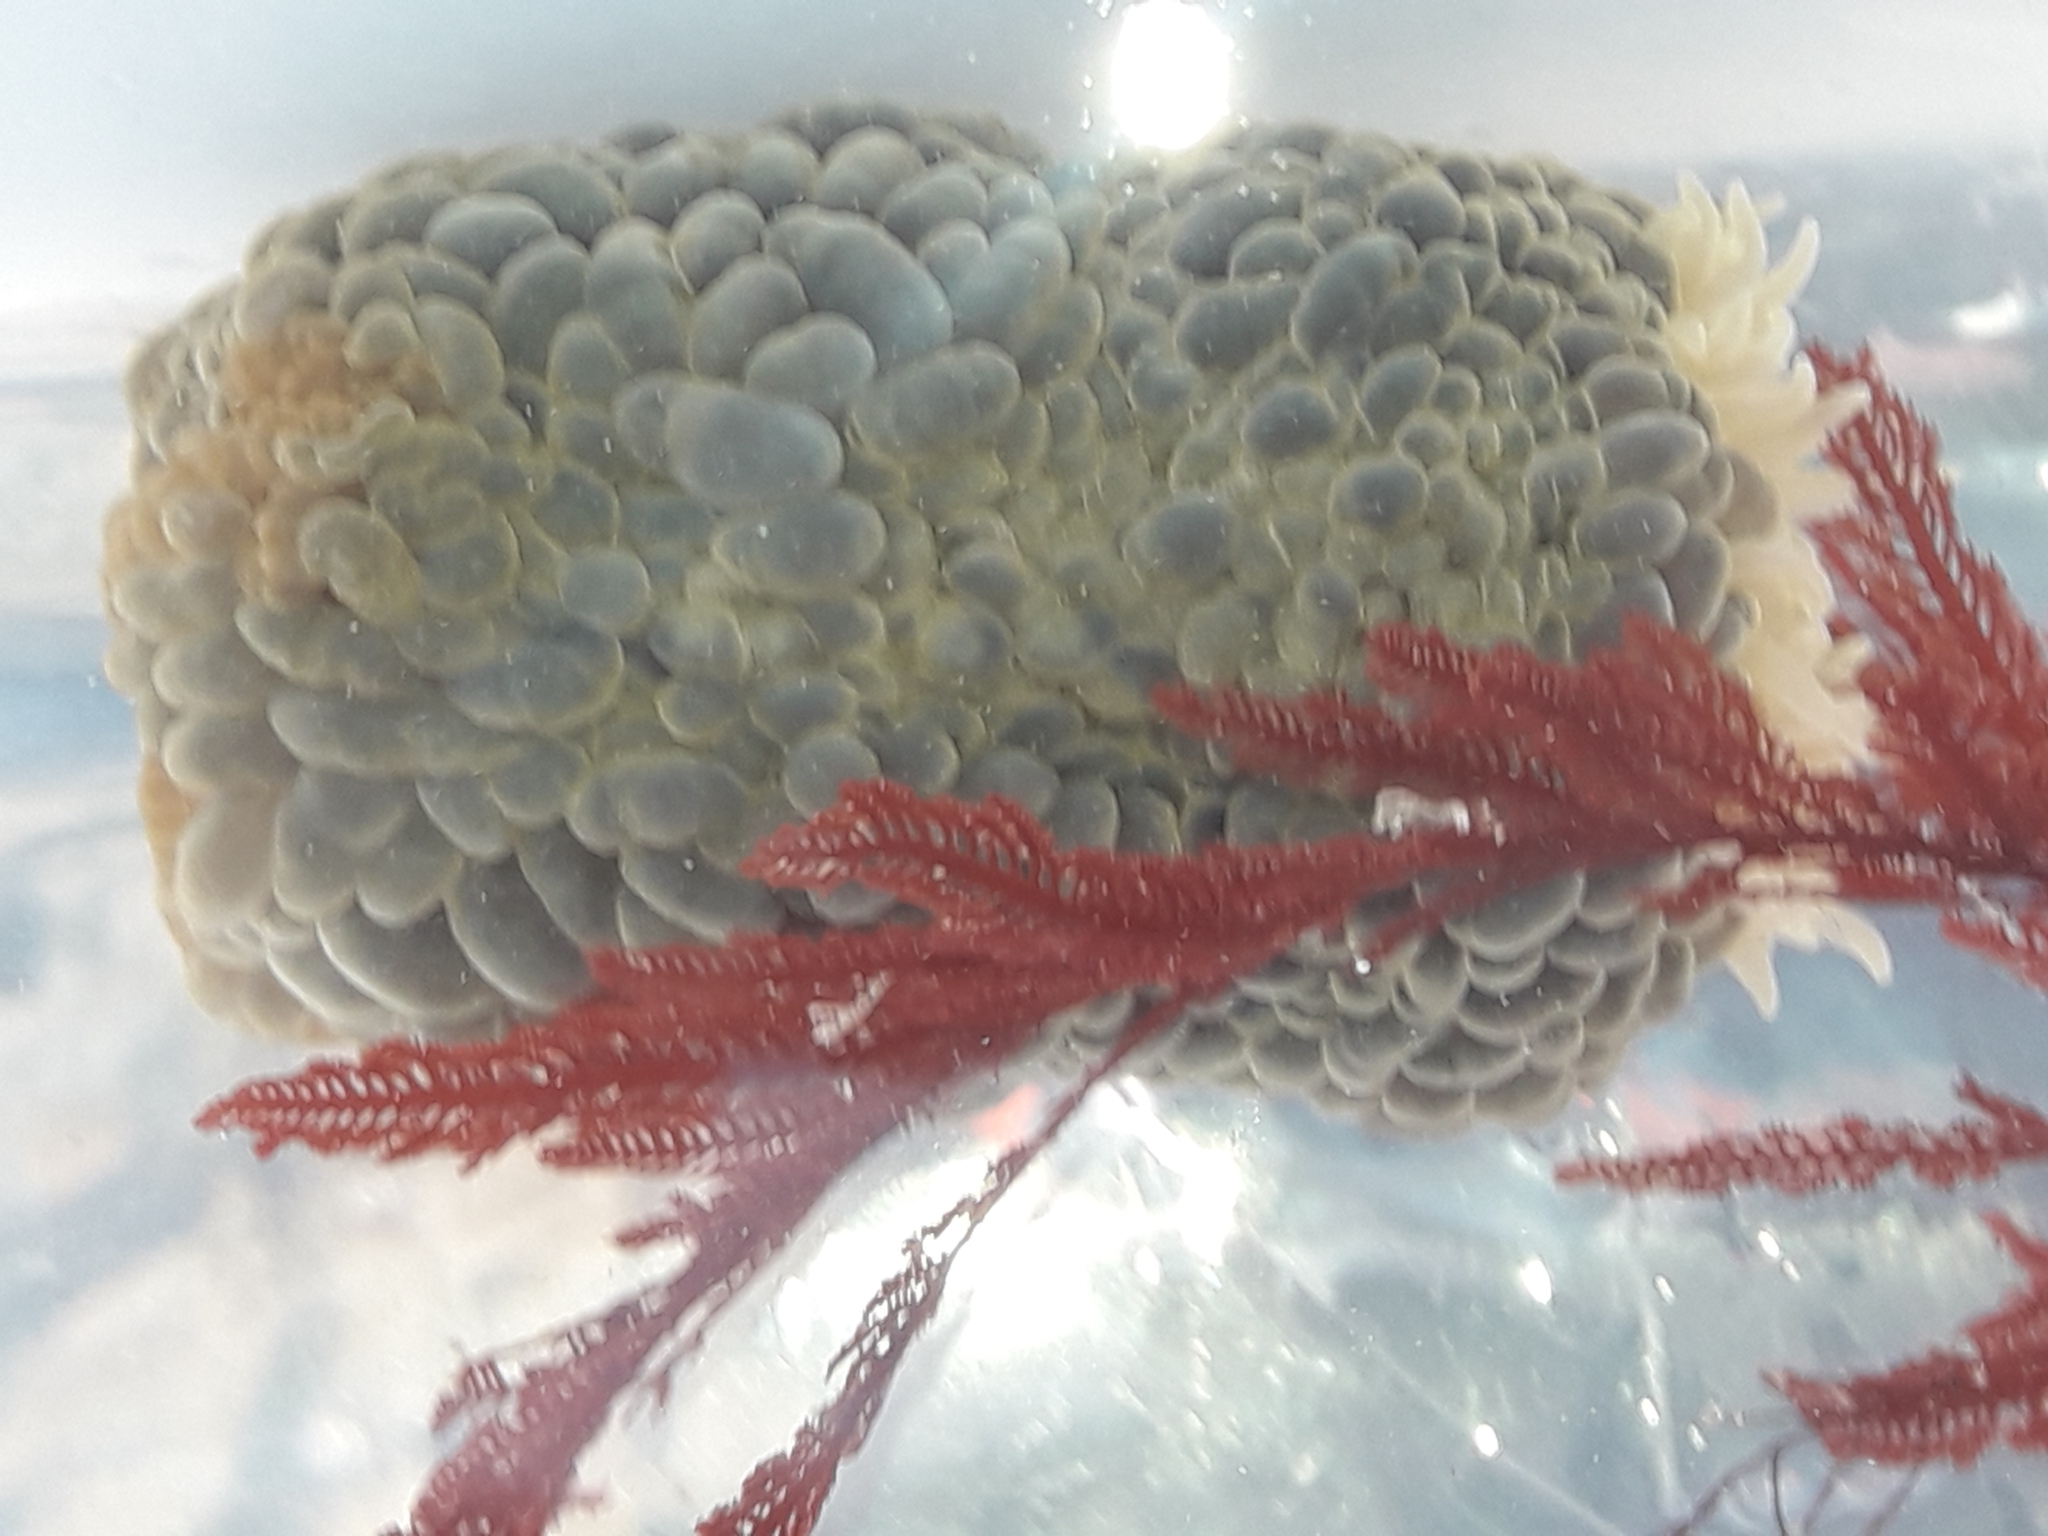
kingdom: Animalia
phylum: Cnidaria
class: Anthozoa
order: Actiniaria
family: Actiniidae
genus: Phlyctenactis
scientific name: Phlyctenactis tuberculosa
